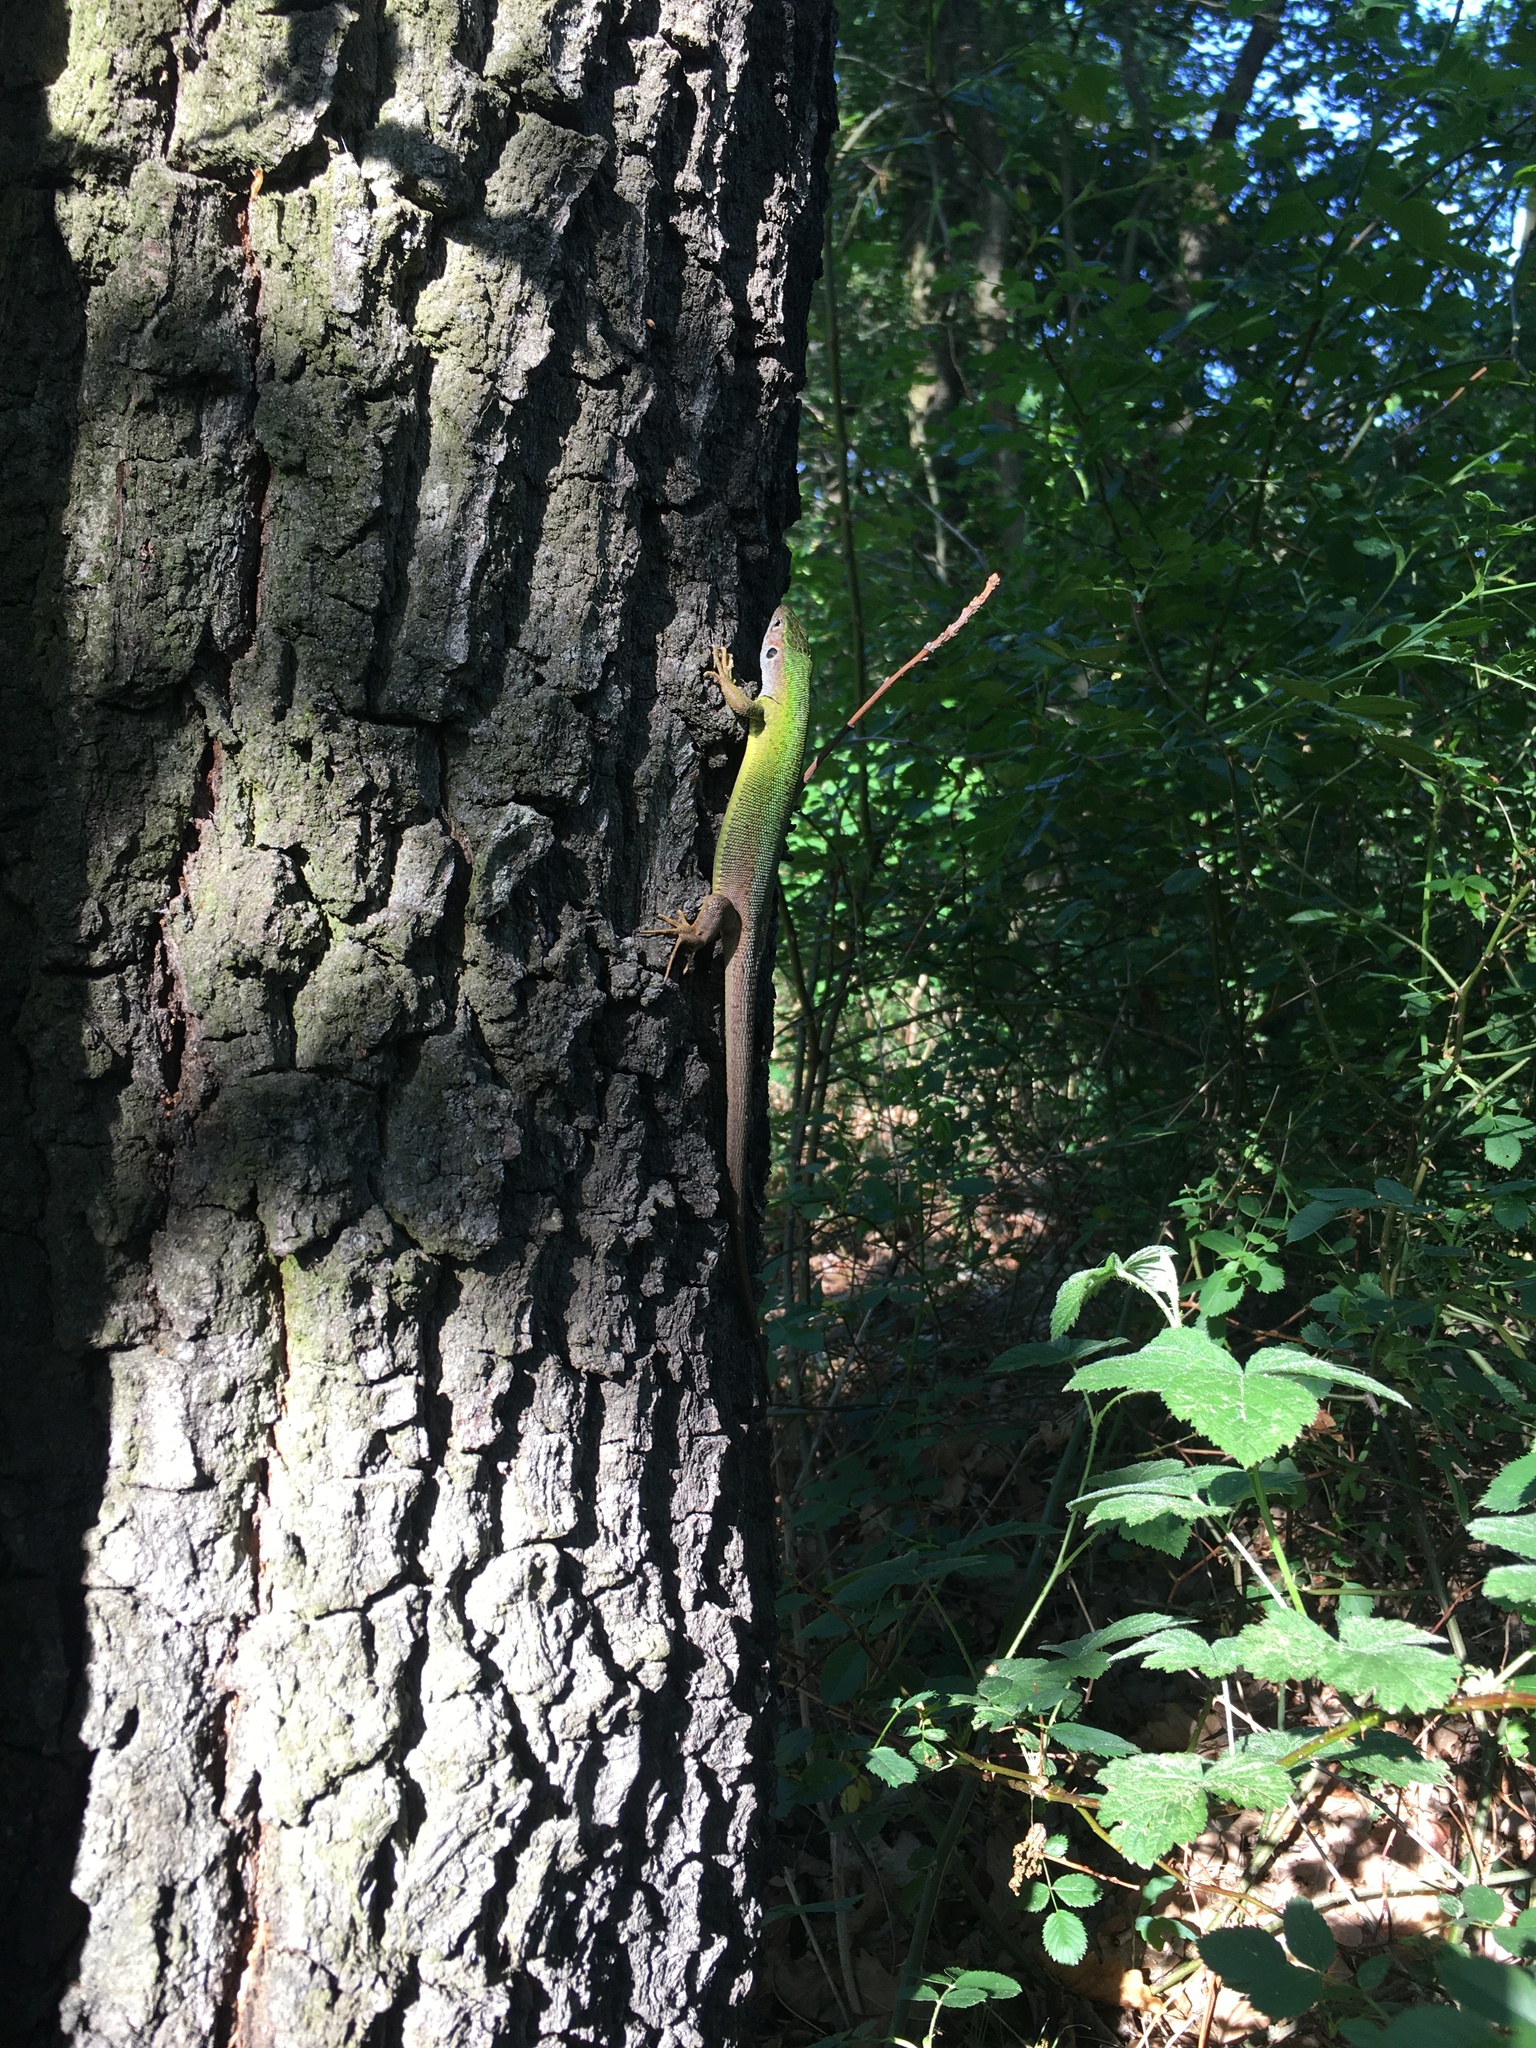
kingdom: Animalia
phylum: Chordata
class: Squamata
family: Lacertidae
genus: Lacerta
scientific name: Lacerta viridis
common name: European green lizard
